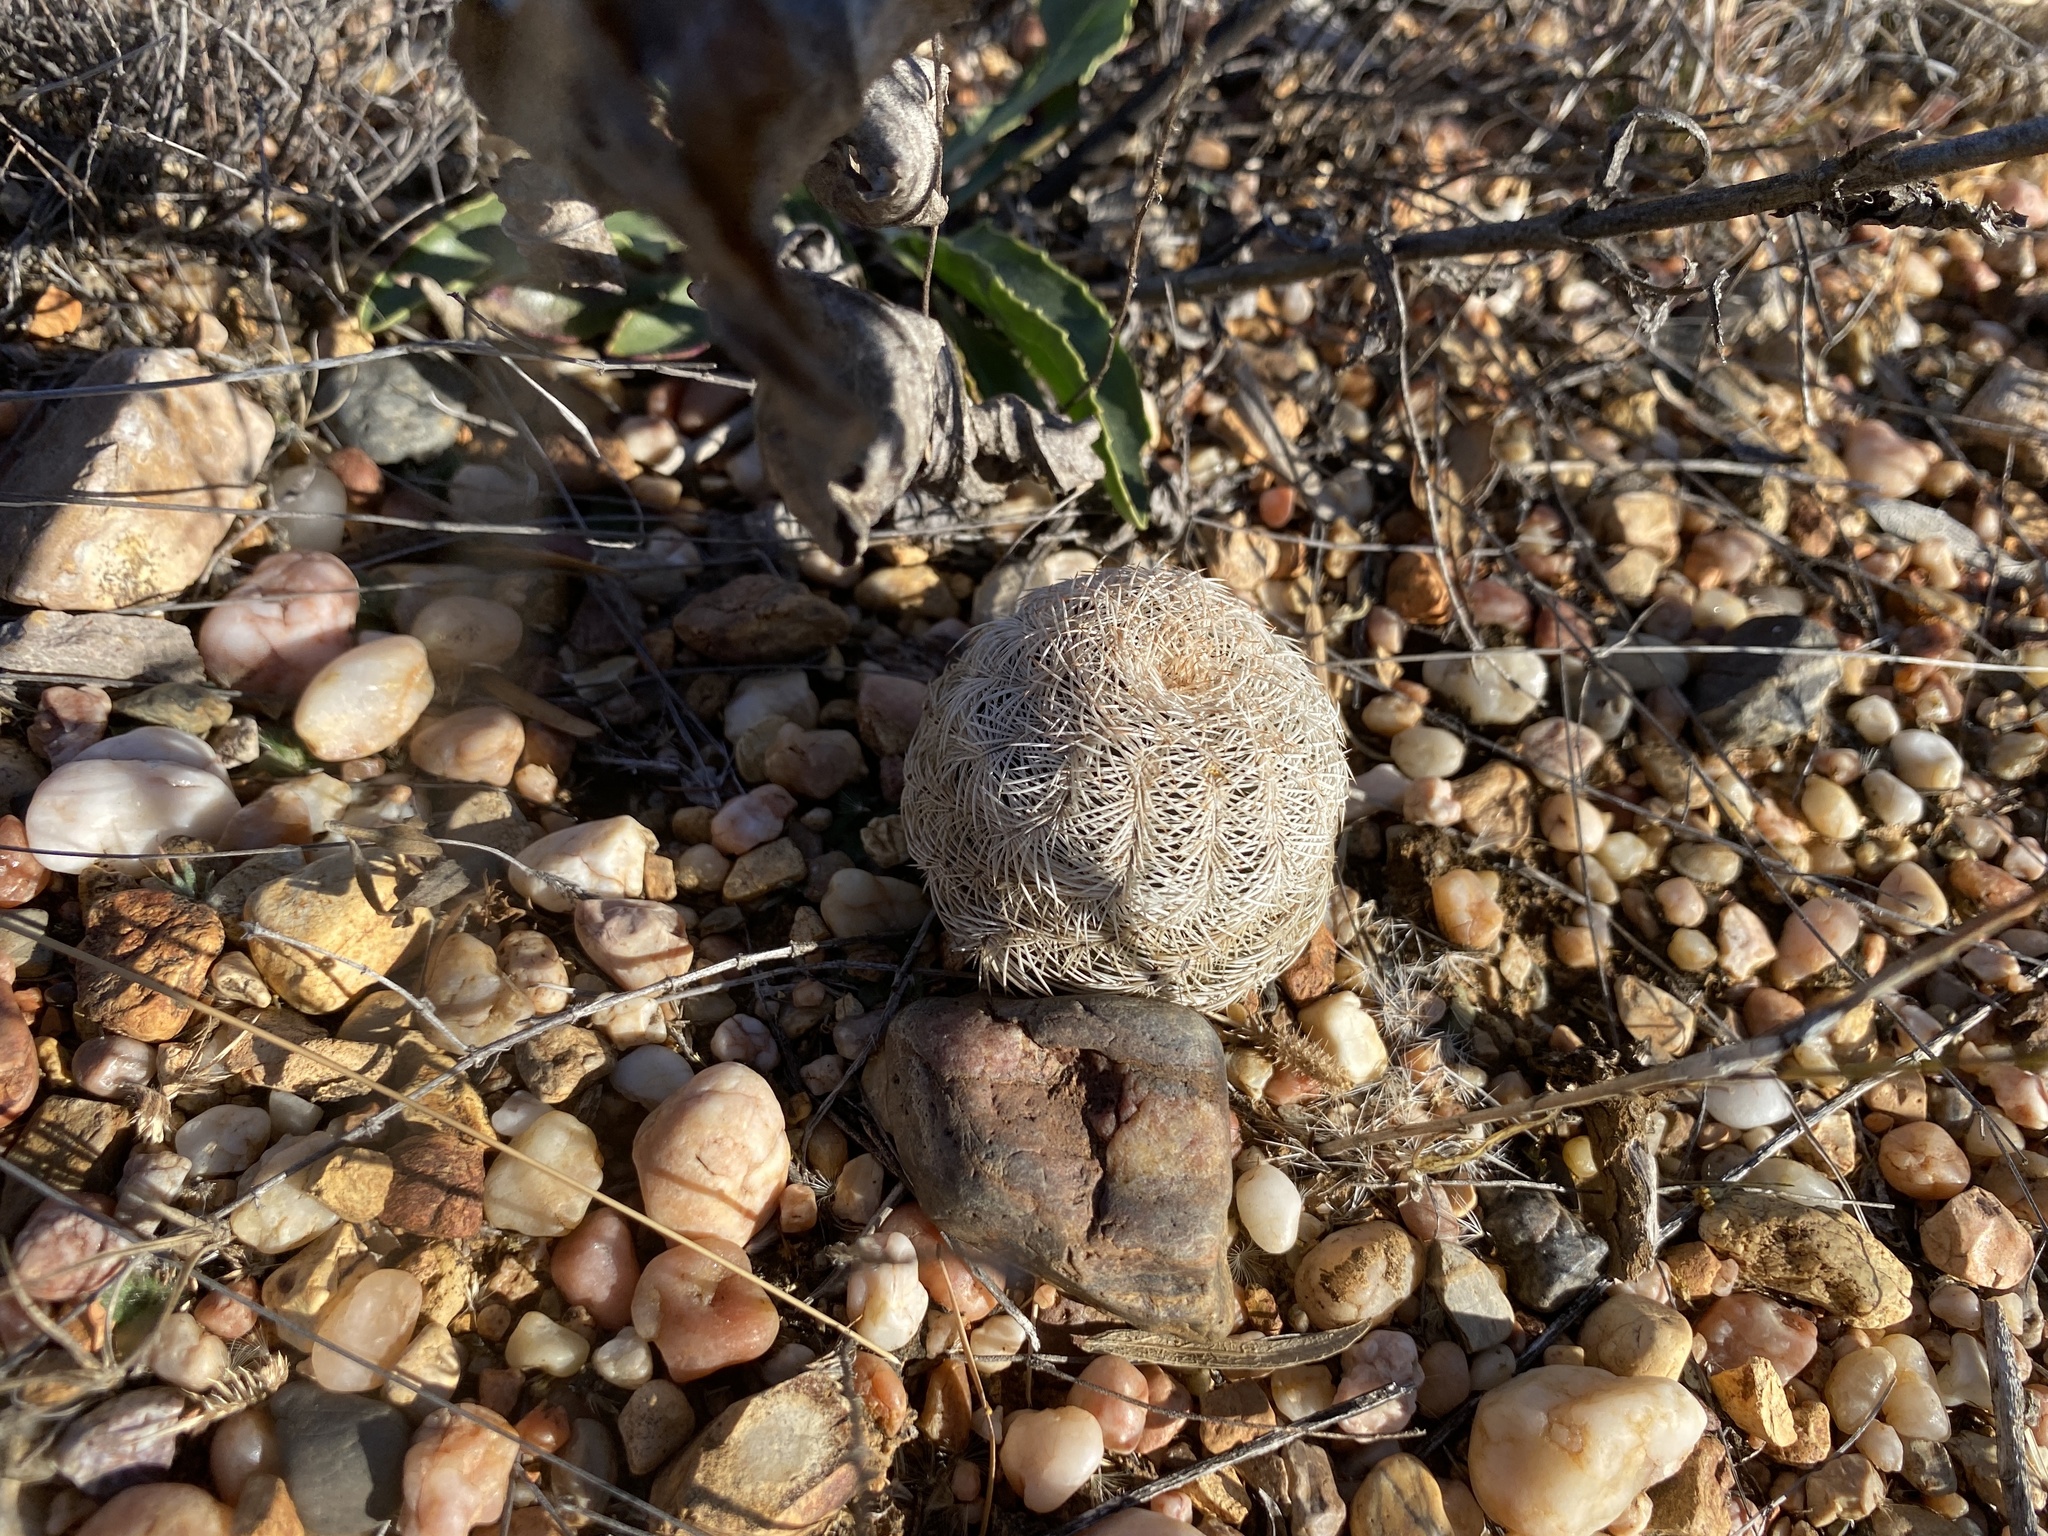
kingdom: Plantae
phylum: Tracheophyta
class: Magnoliopsida
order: Caryophyllales
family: Cactaceae
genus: Echinocereus
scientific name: Echinocereus reichenbachii
